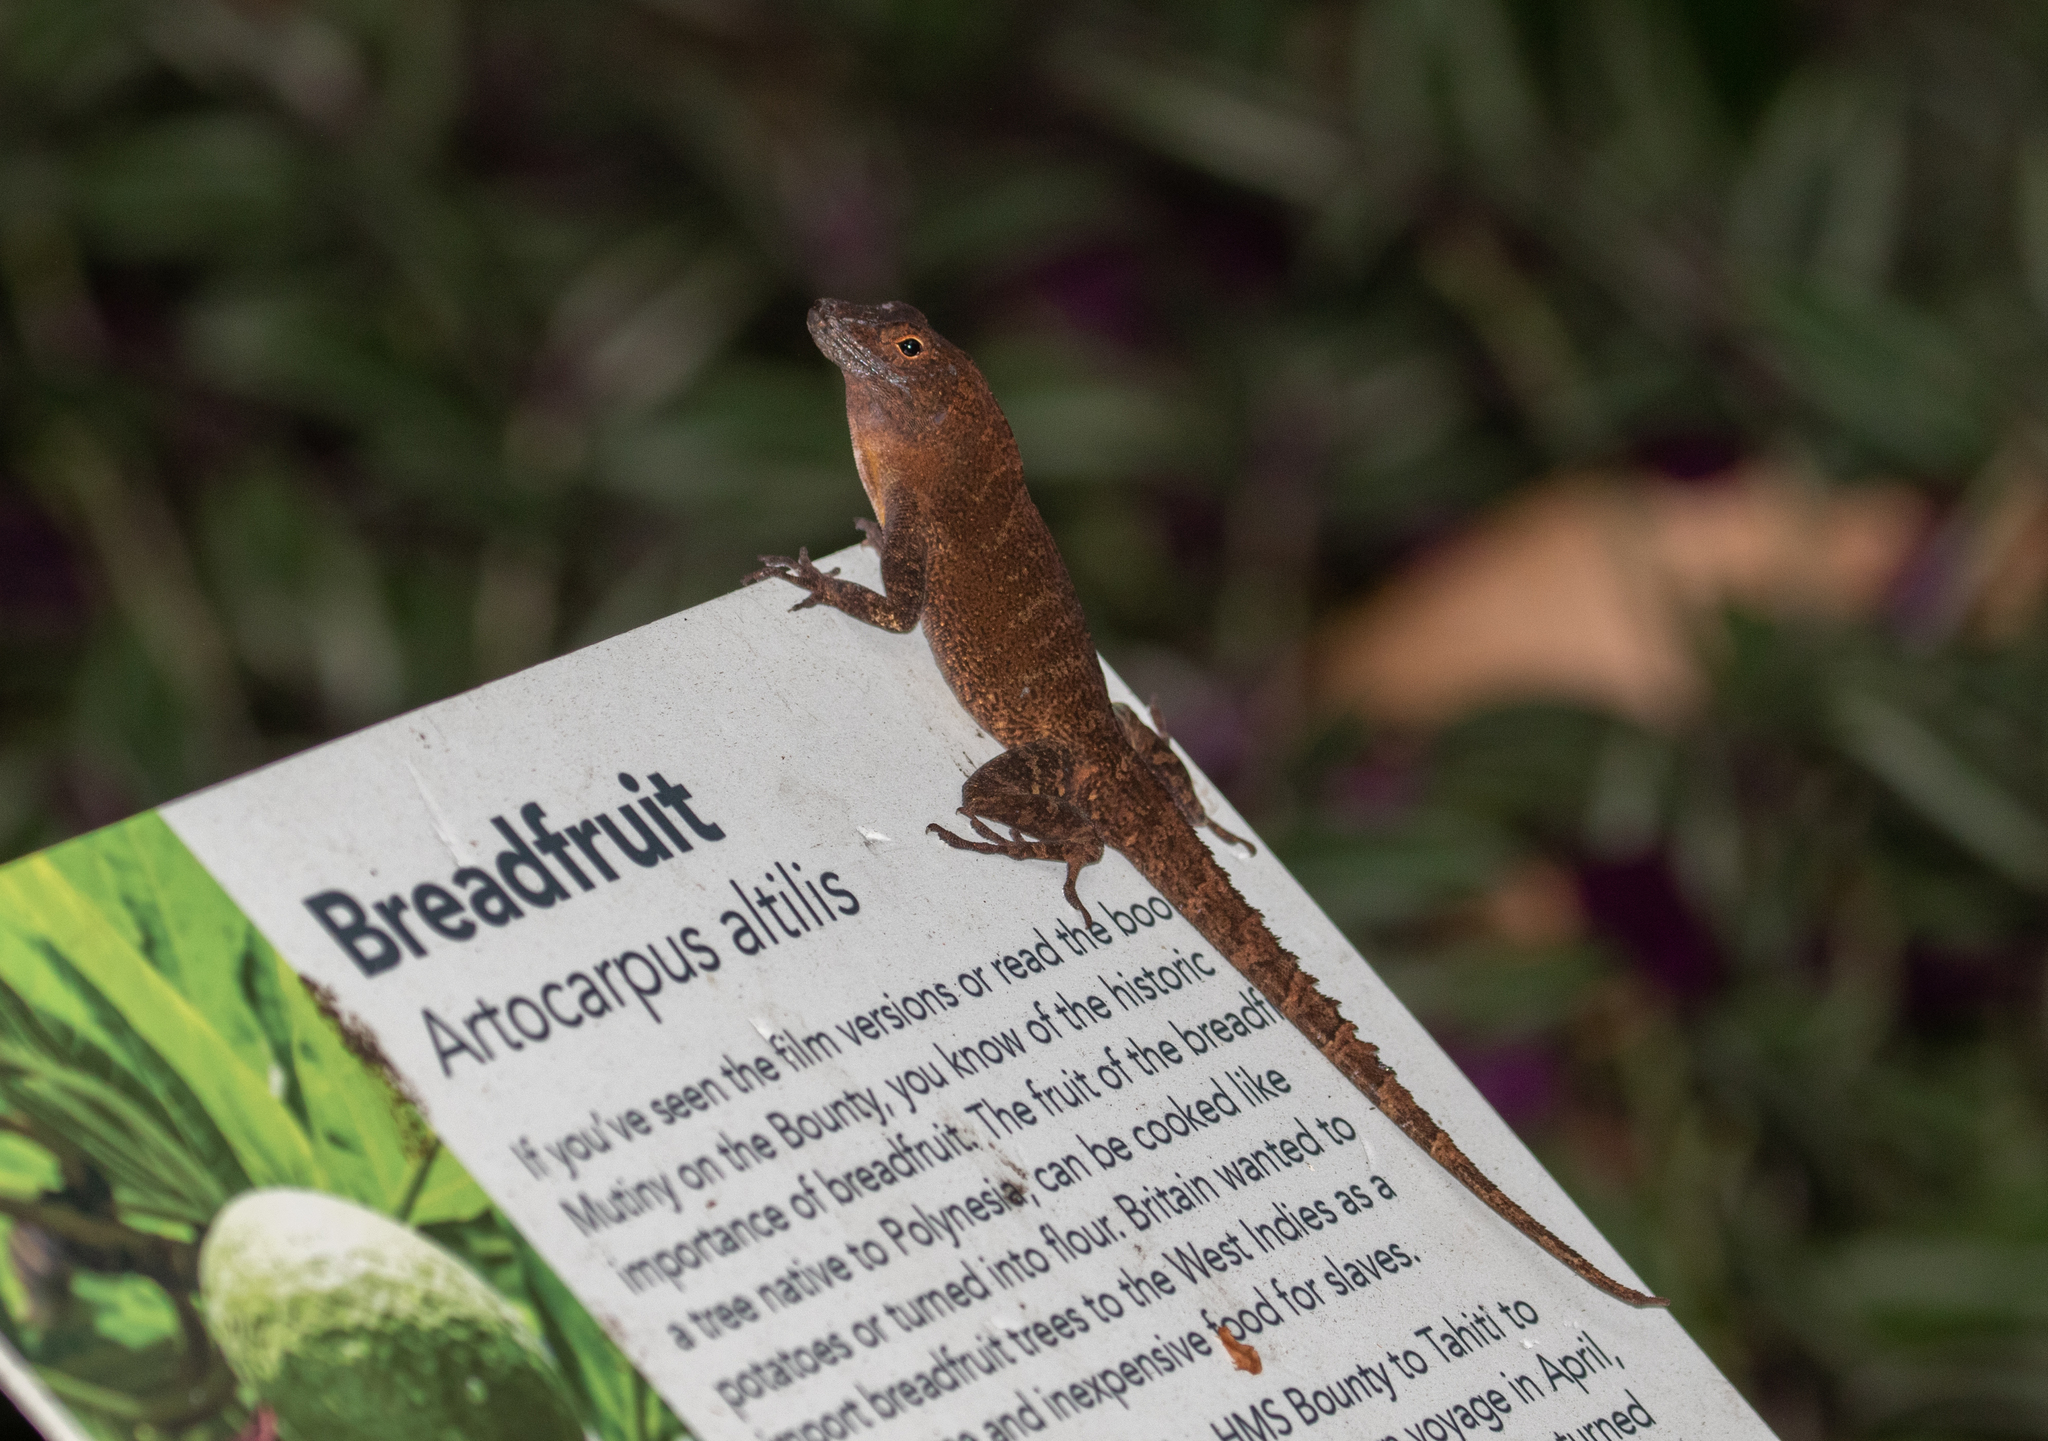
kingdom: Animalia
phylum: Chordata
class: Squamata
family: Dactyloidae
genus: Anolis
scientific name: Anolis cristatellus
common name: Crested anole
